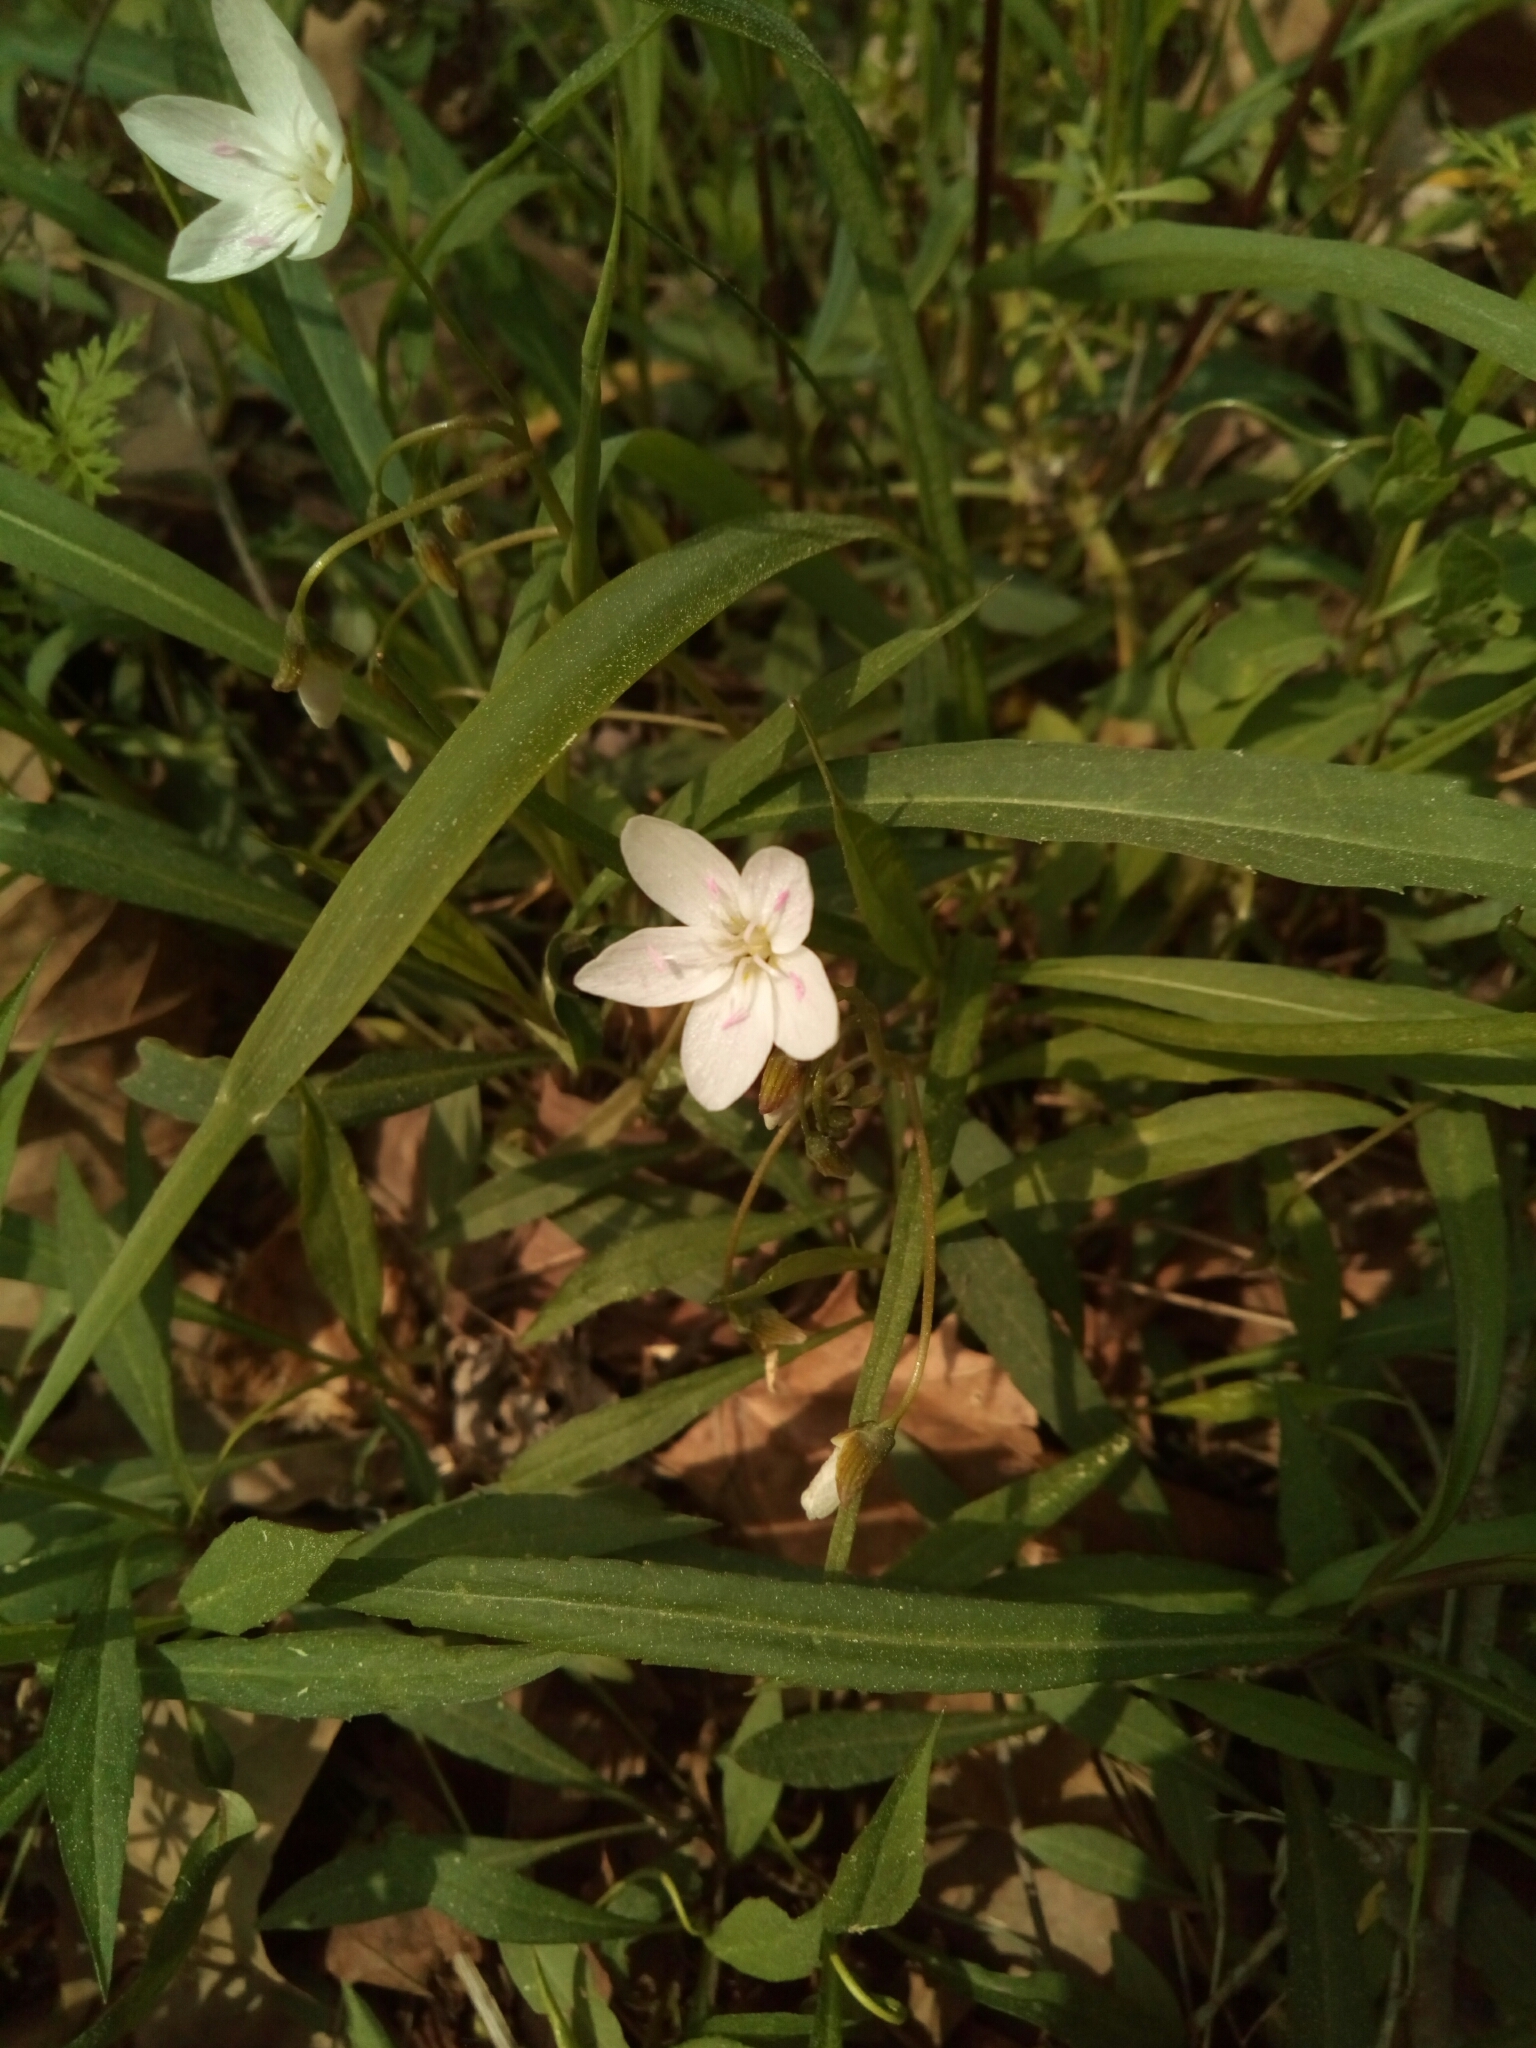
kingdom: Plantae
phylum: Tracheophyta
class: Magnoliopsida
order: Caryophyllales
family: Montiaceae
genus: Claytonia
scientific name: Claytonia virginica
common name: Virginia springbeauty
